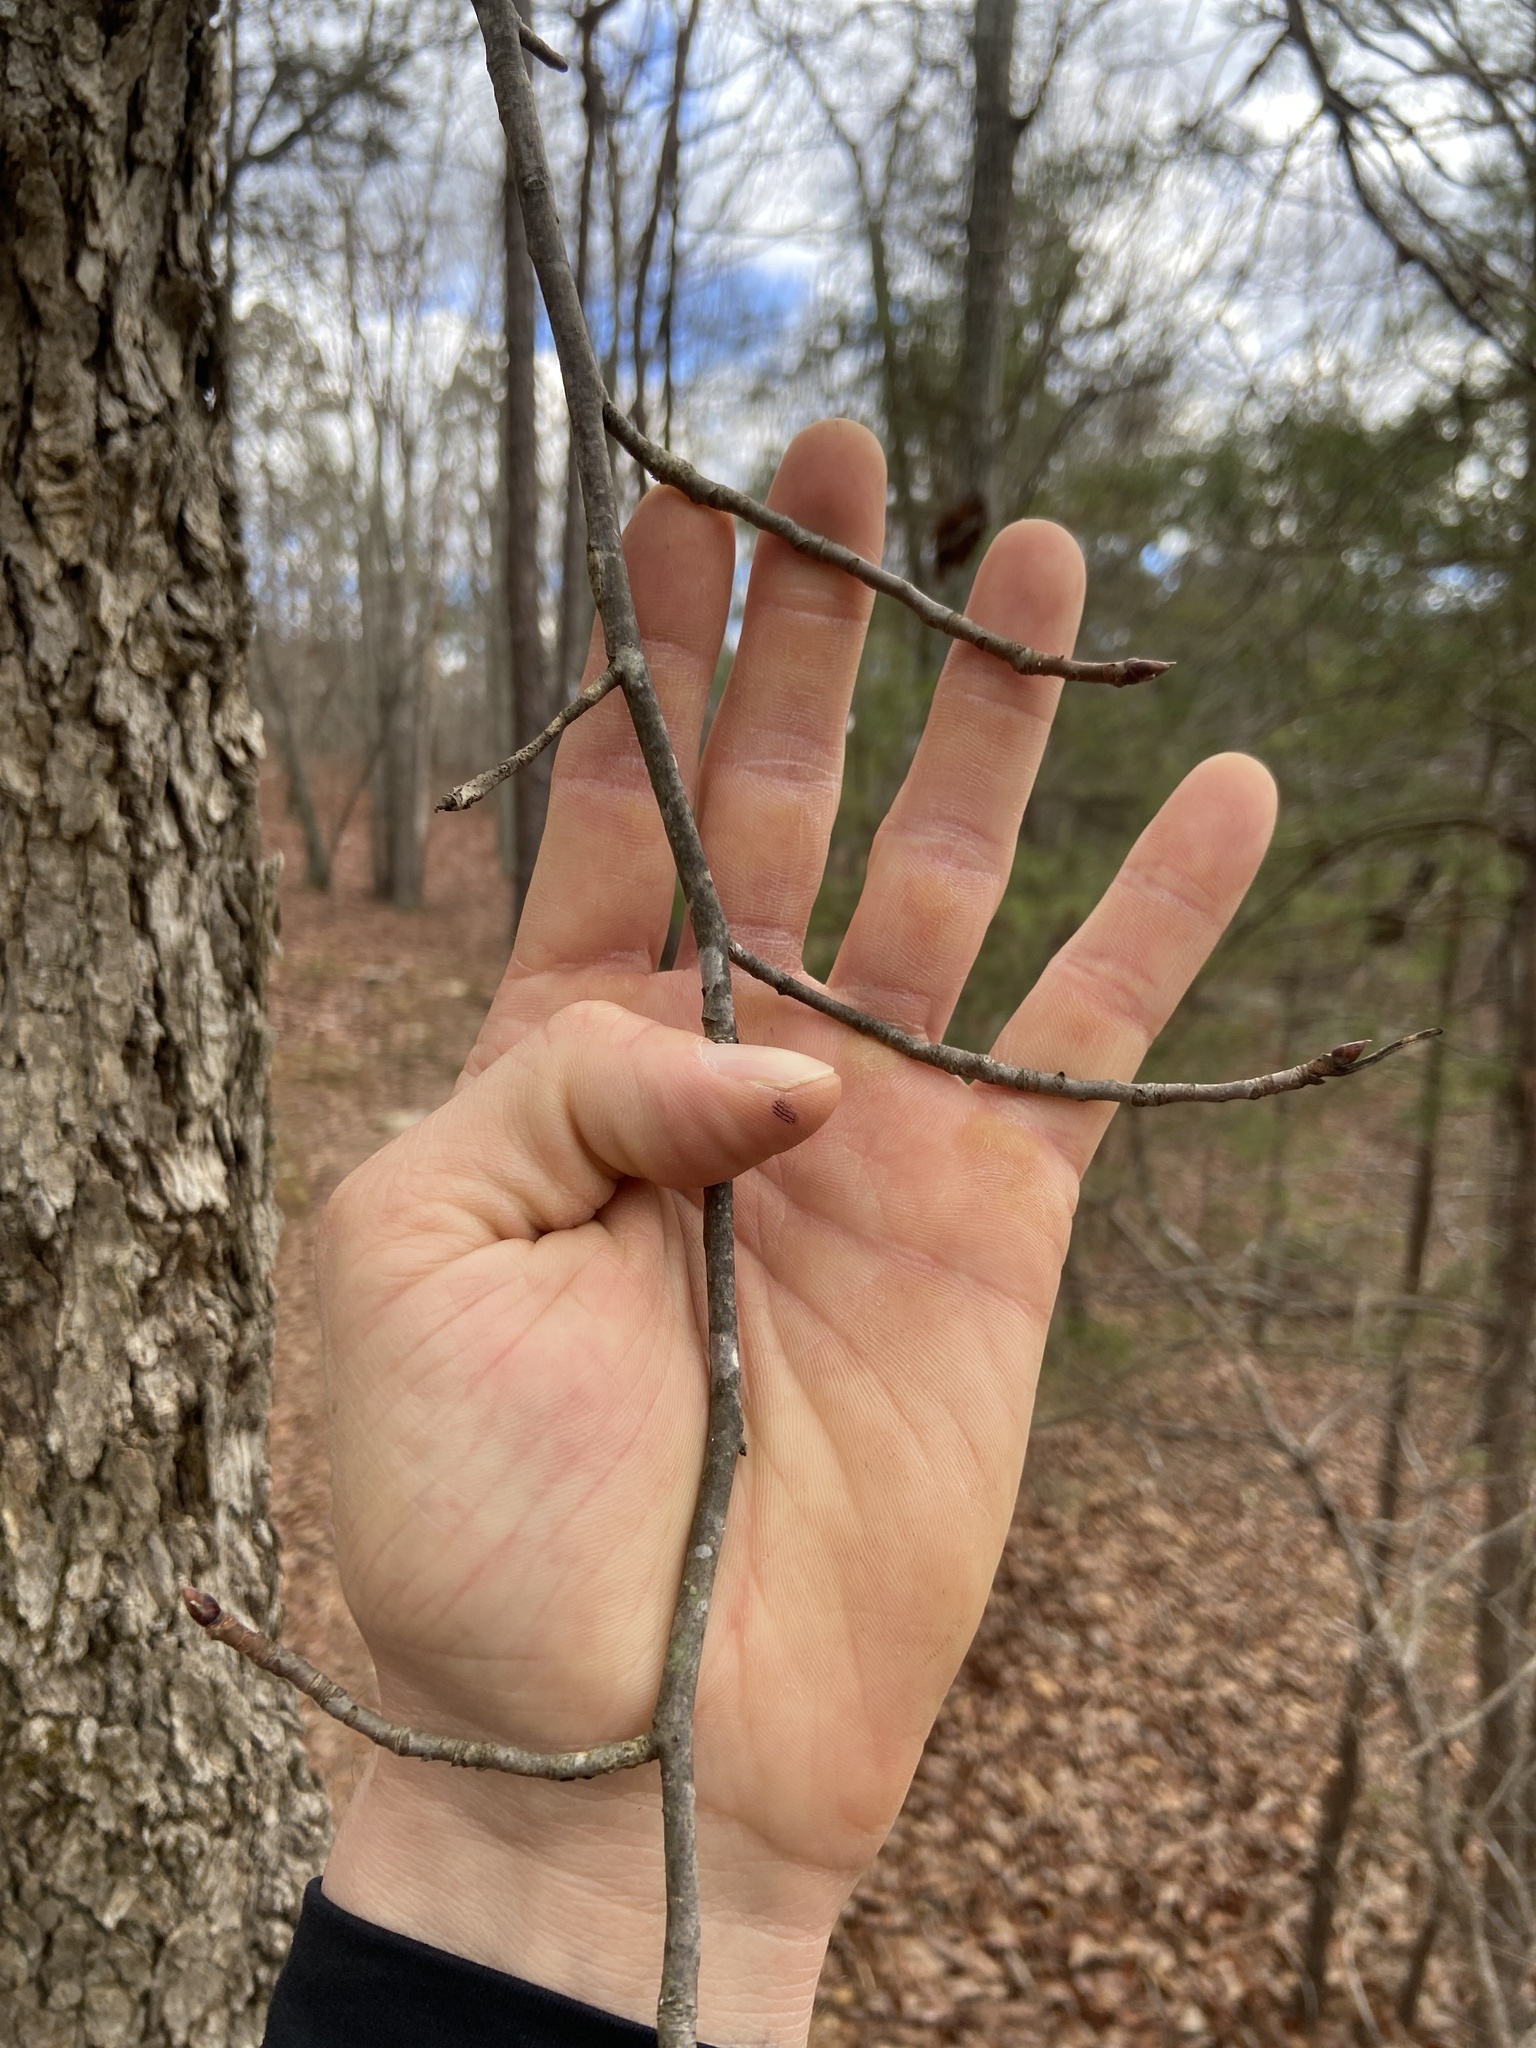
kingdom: Plantae
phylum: Tracheophyta
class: Magnoliopsida
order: Cornales
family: Nyssaceae
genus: Nyssa
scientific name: Nyssa sylvatica
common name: Black tupelo
